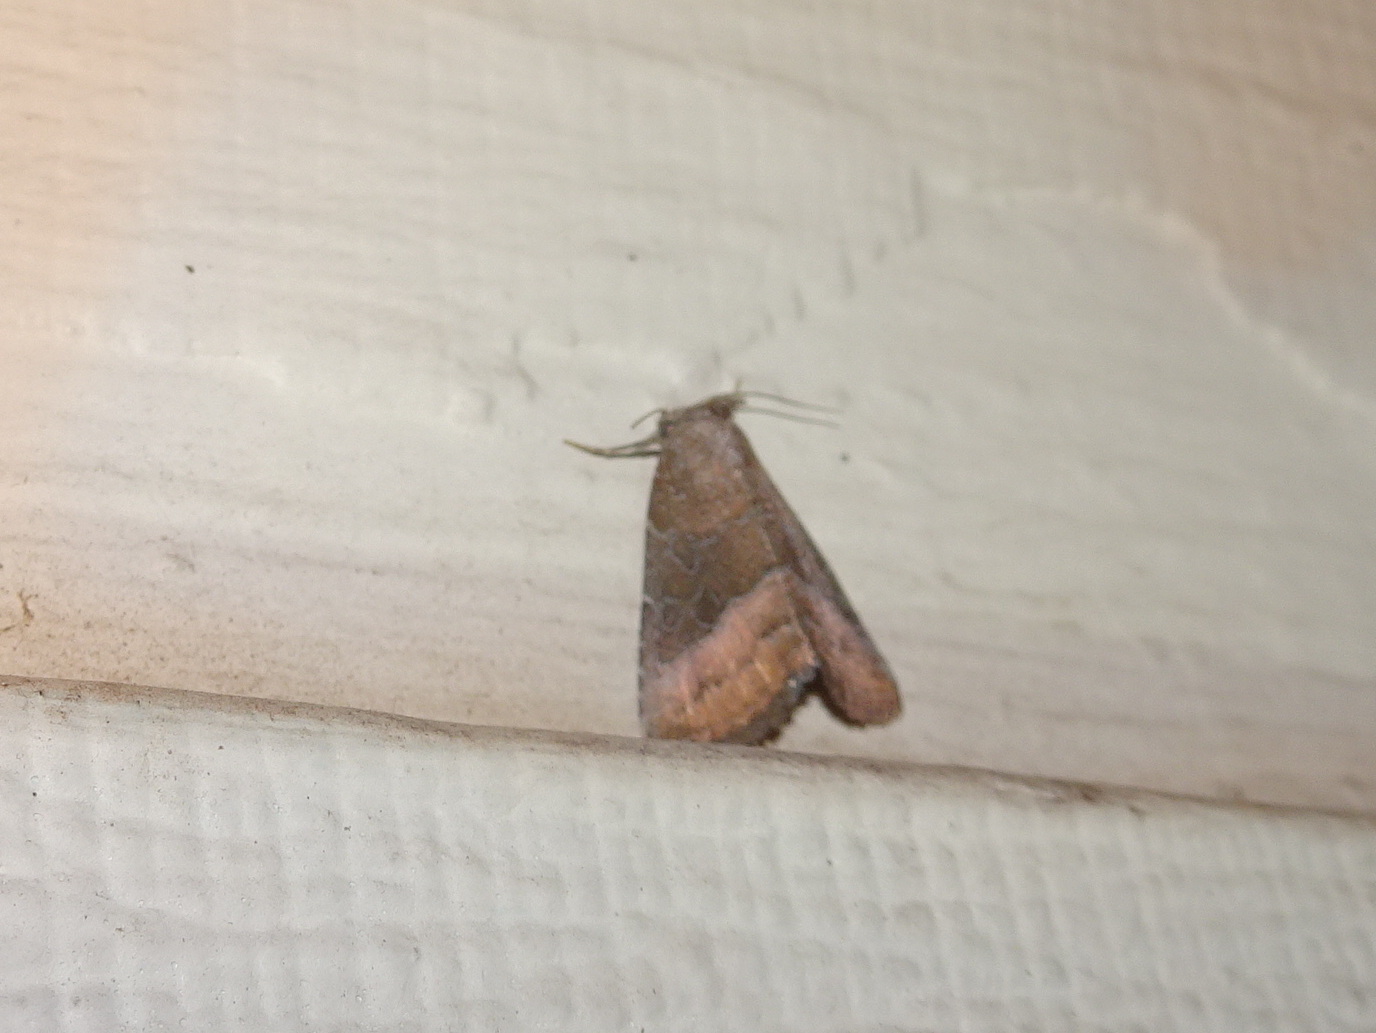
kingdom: Animalia
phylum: Arthropoda
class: Insecta
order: Lepidoptera
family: Noctuidae
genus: Ogdoconta
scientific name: Ogdoconta cinereola
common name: Common pinkband
